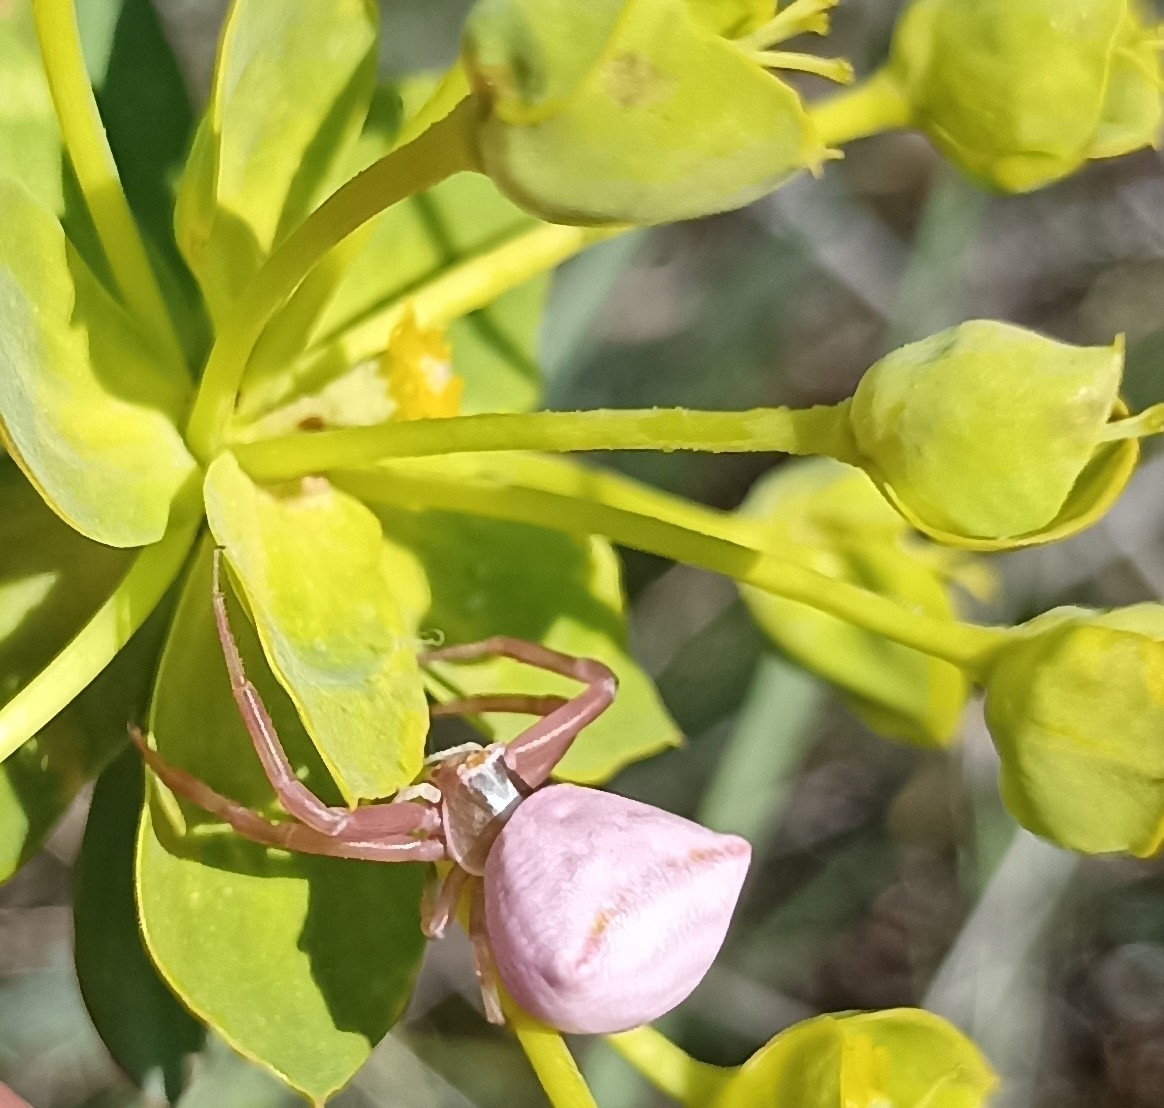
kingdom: Animalia
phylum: Arthropoda
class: Arachnida
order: Araneae
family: Thomisidae
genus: Thomisus
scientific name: Thomisus onustus
